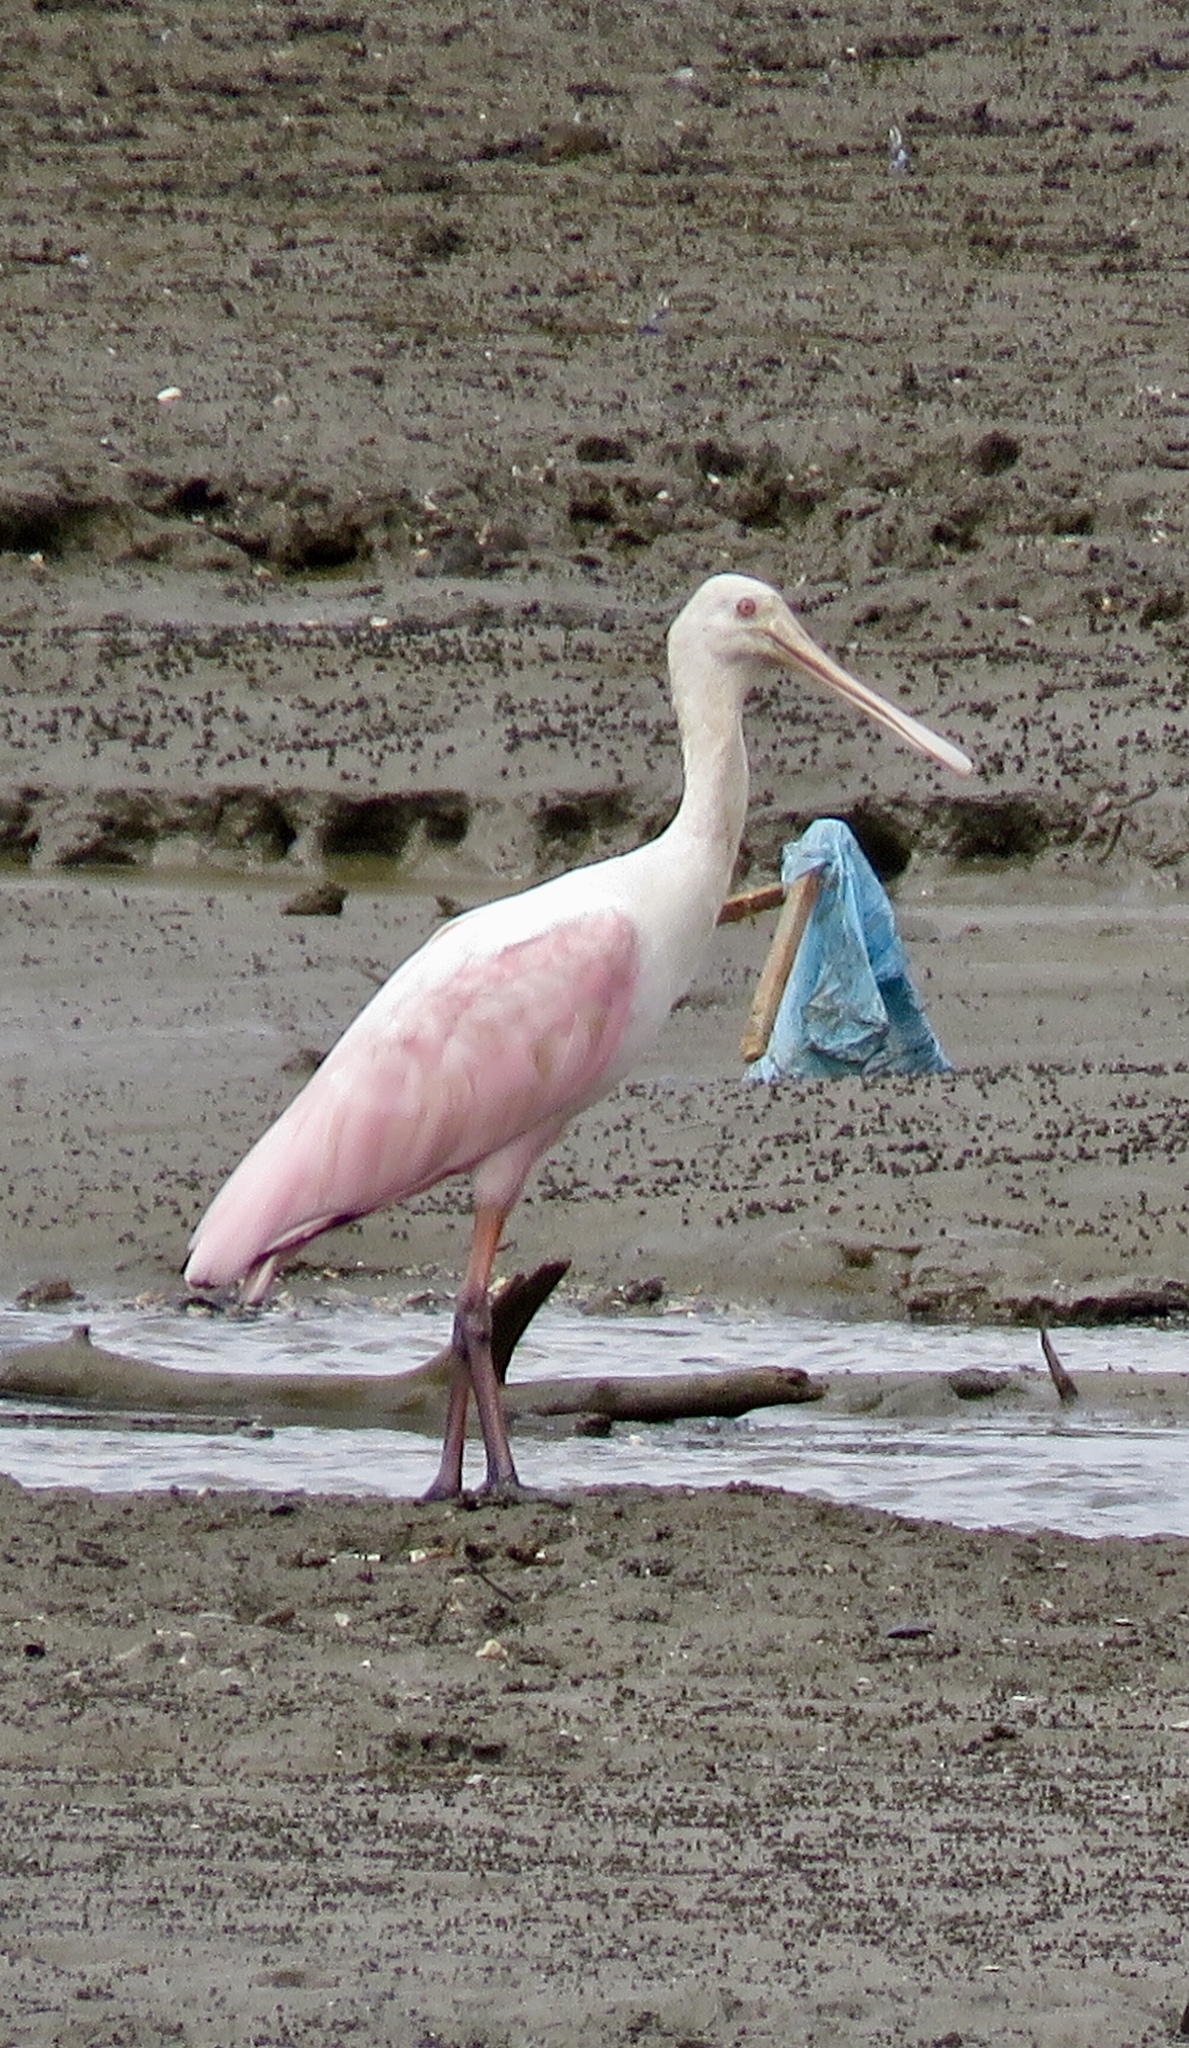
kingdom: Animalia
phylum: Chordata
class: Aves
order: Pelecaniformes
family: Threskiornithidae
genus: Platalea
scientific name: Platalea ajaja
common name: Roseate spoonbill
